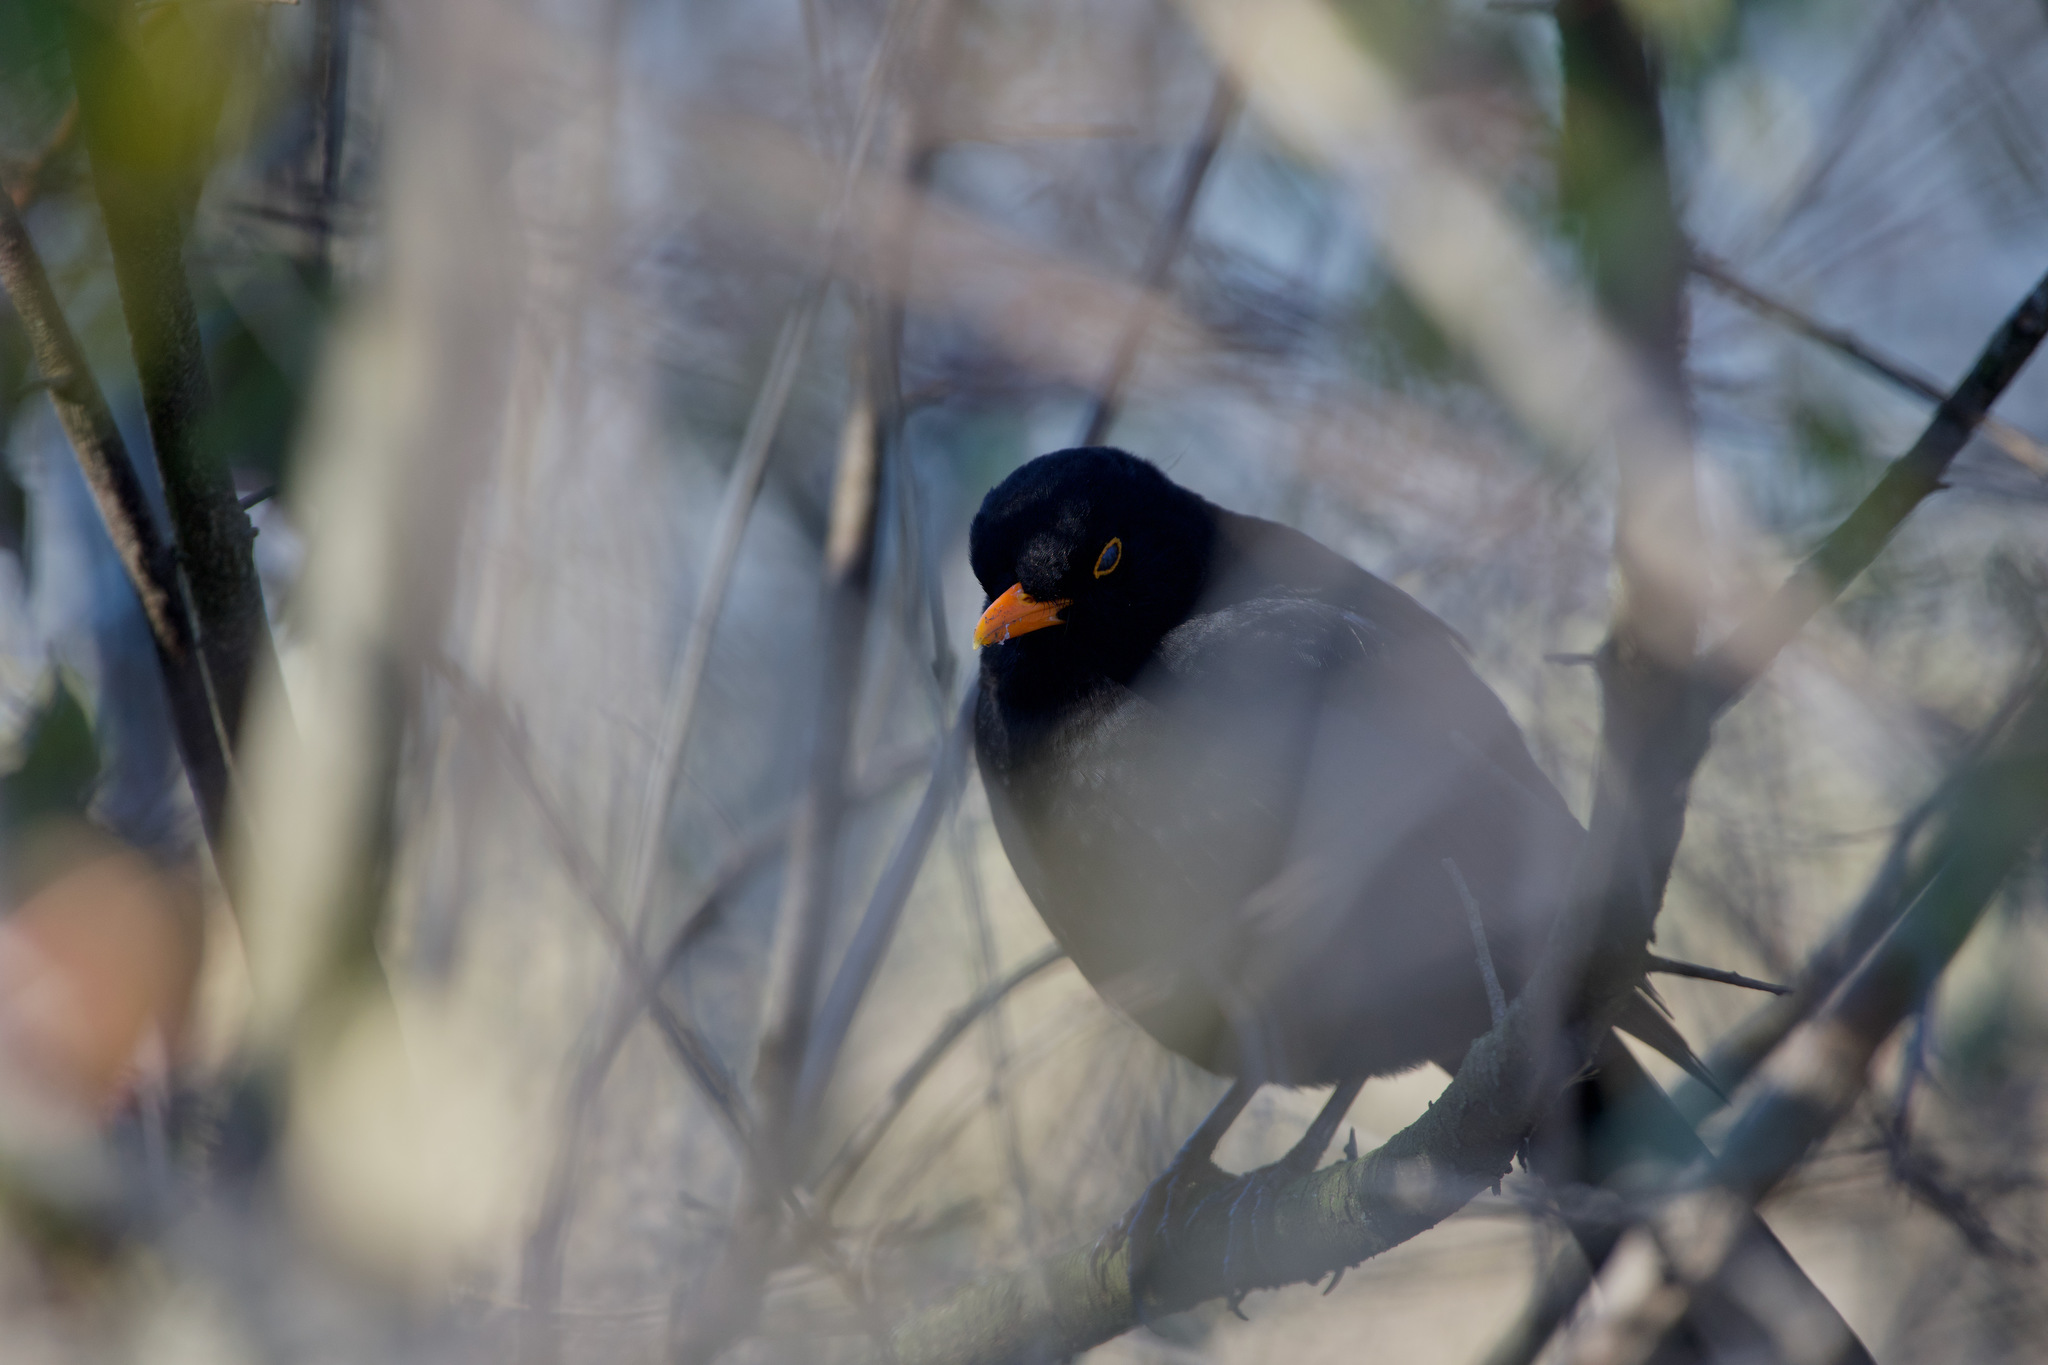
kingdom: Animalia
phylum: Chordata
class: Aves
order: Passeriformes
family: Turdidae
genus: Turdus
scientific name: Turdus merula
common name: Common blackbird
